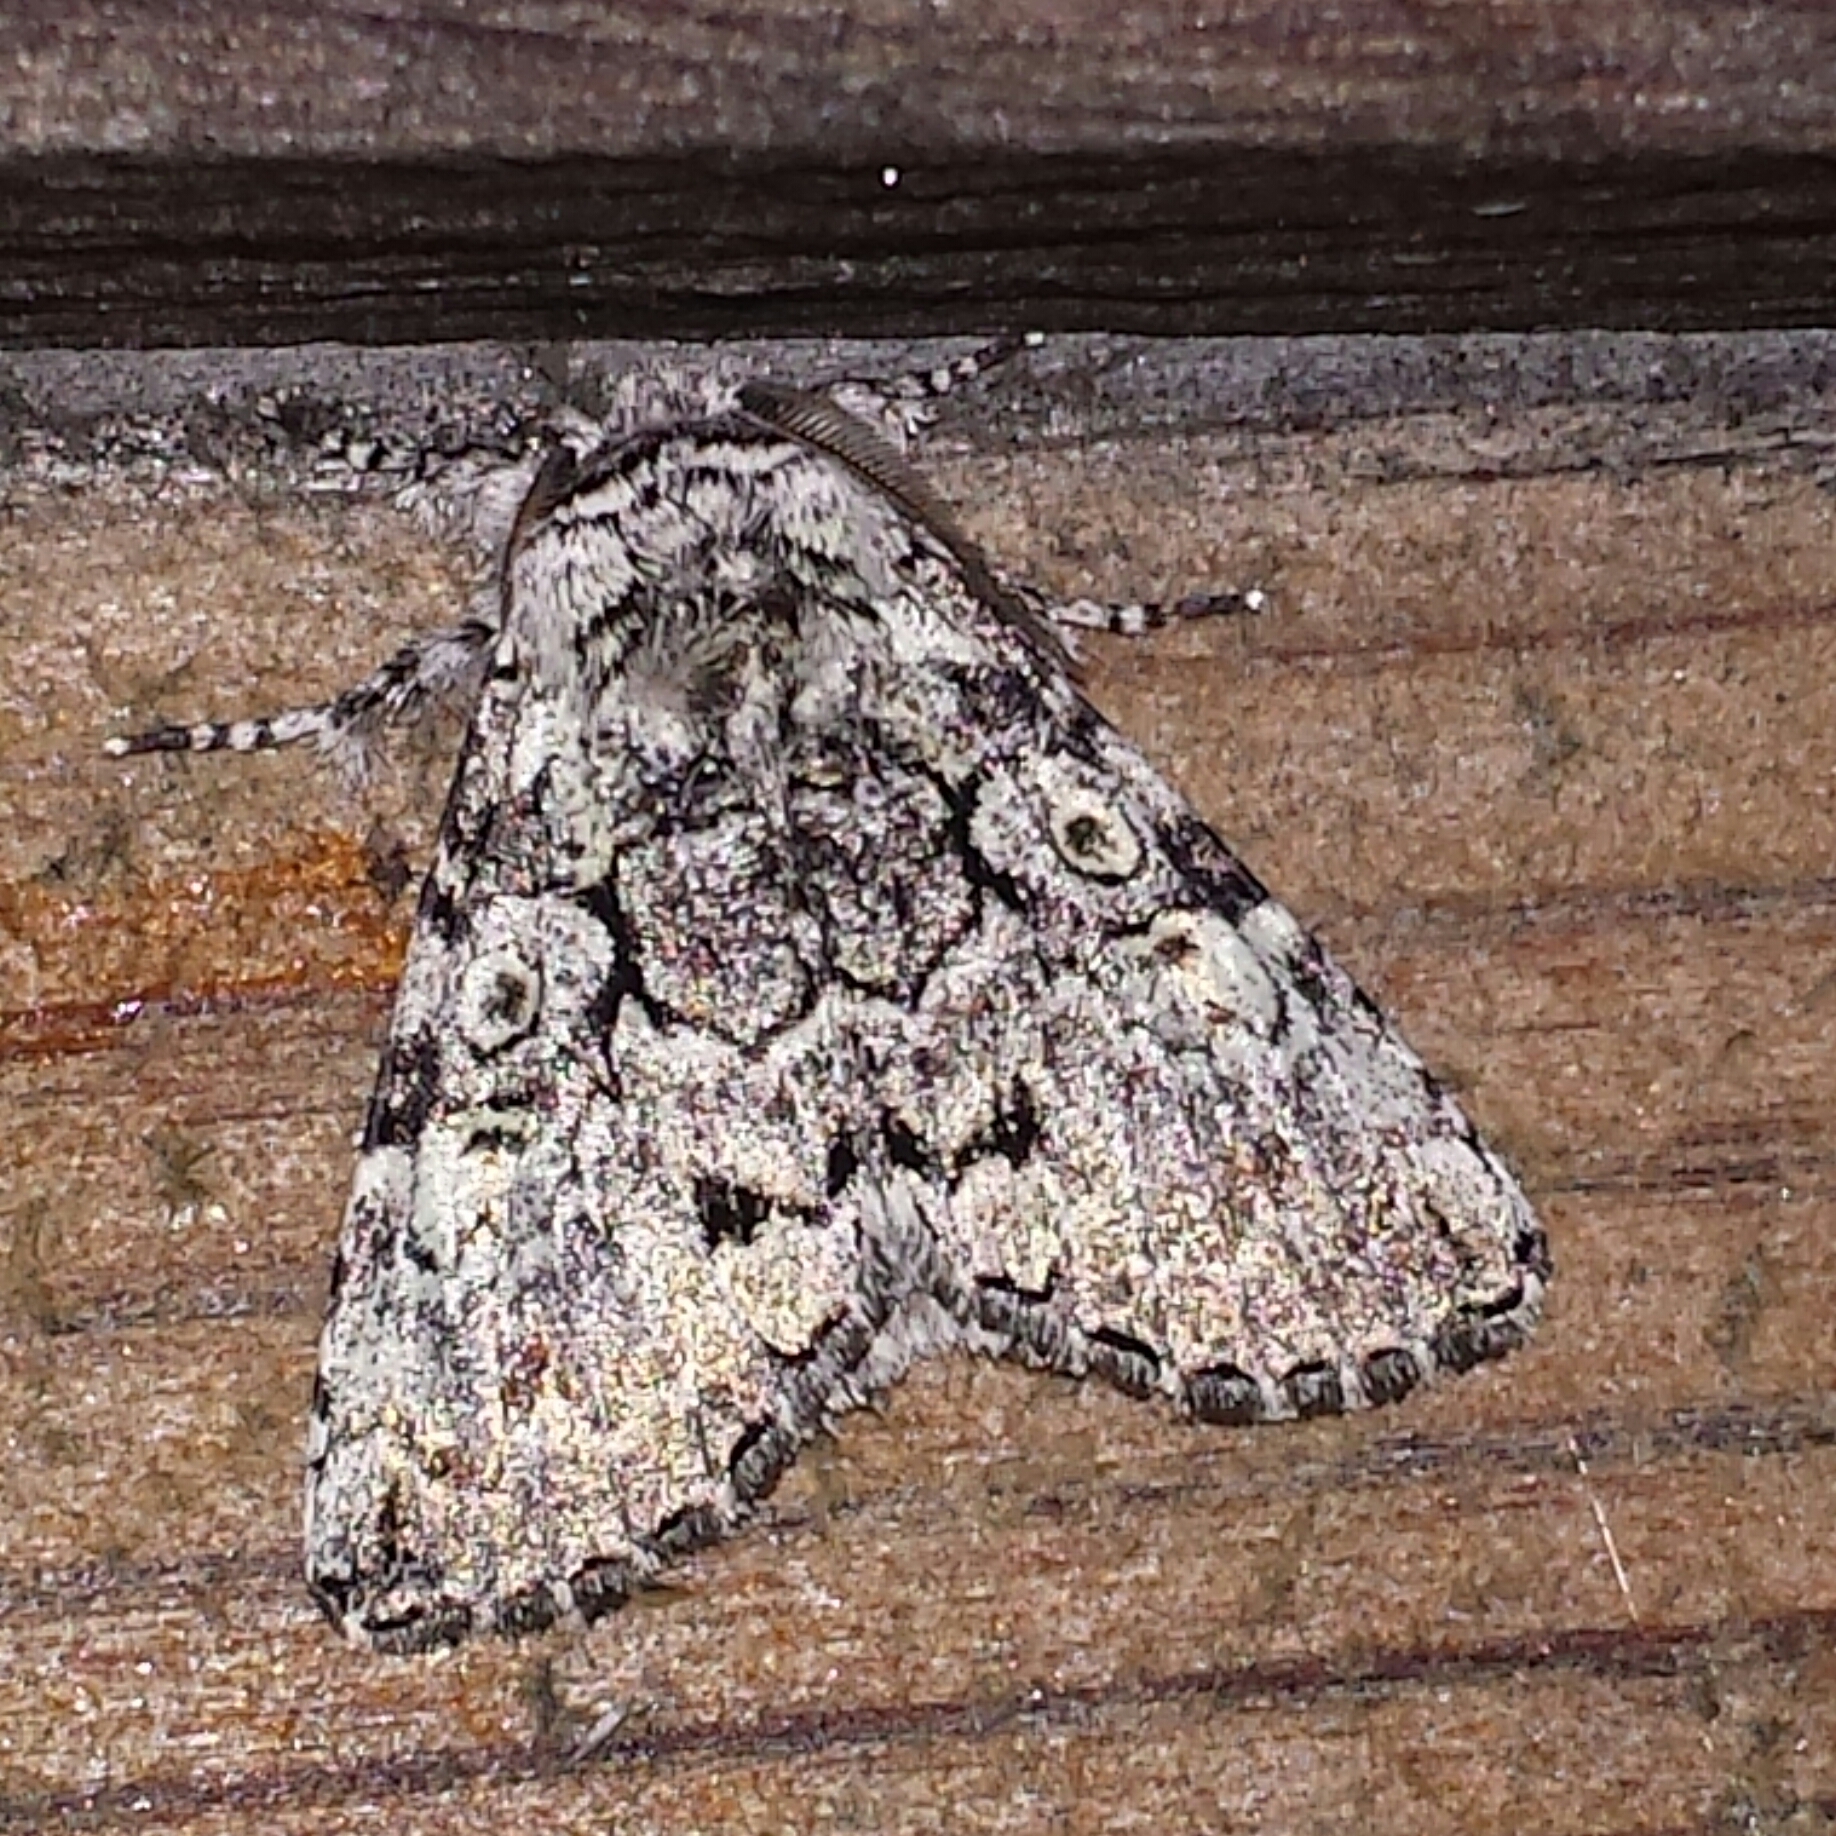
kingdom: Animalia
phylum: Arthropoda
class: Insecta
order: Lepidoptera
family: Noctuidae
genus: Charadra
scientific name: Charadra deridens
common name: Marbled tuffet
